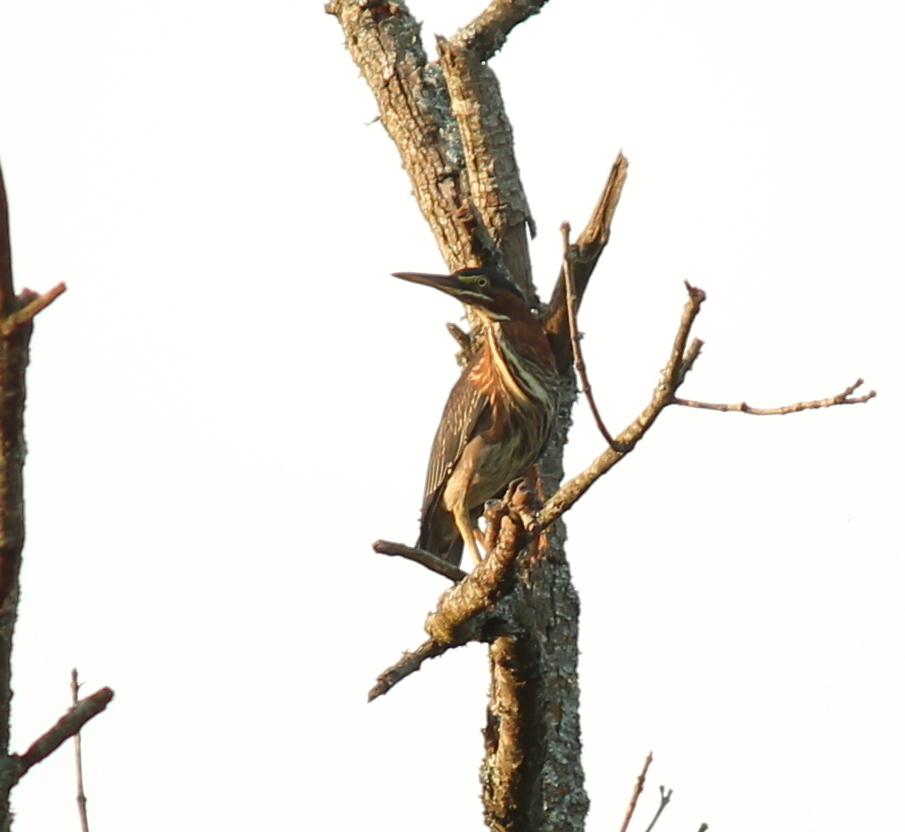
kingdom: Animalia
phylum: Chordata
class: Aves
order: Pelecaniformes
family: Ardeidae
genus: Butorides
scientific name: Butorides virescens
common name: Green heron
